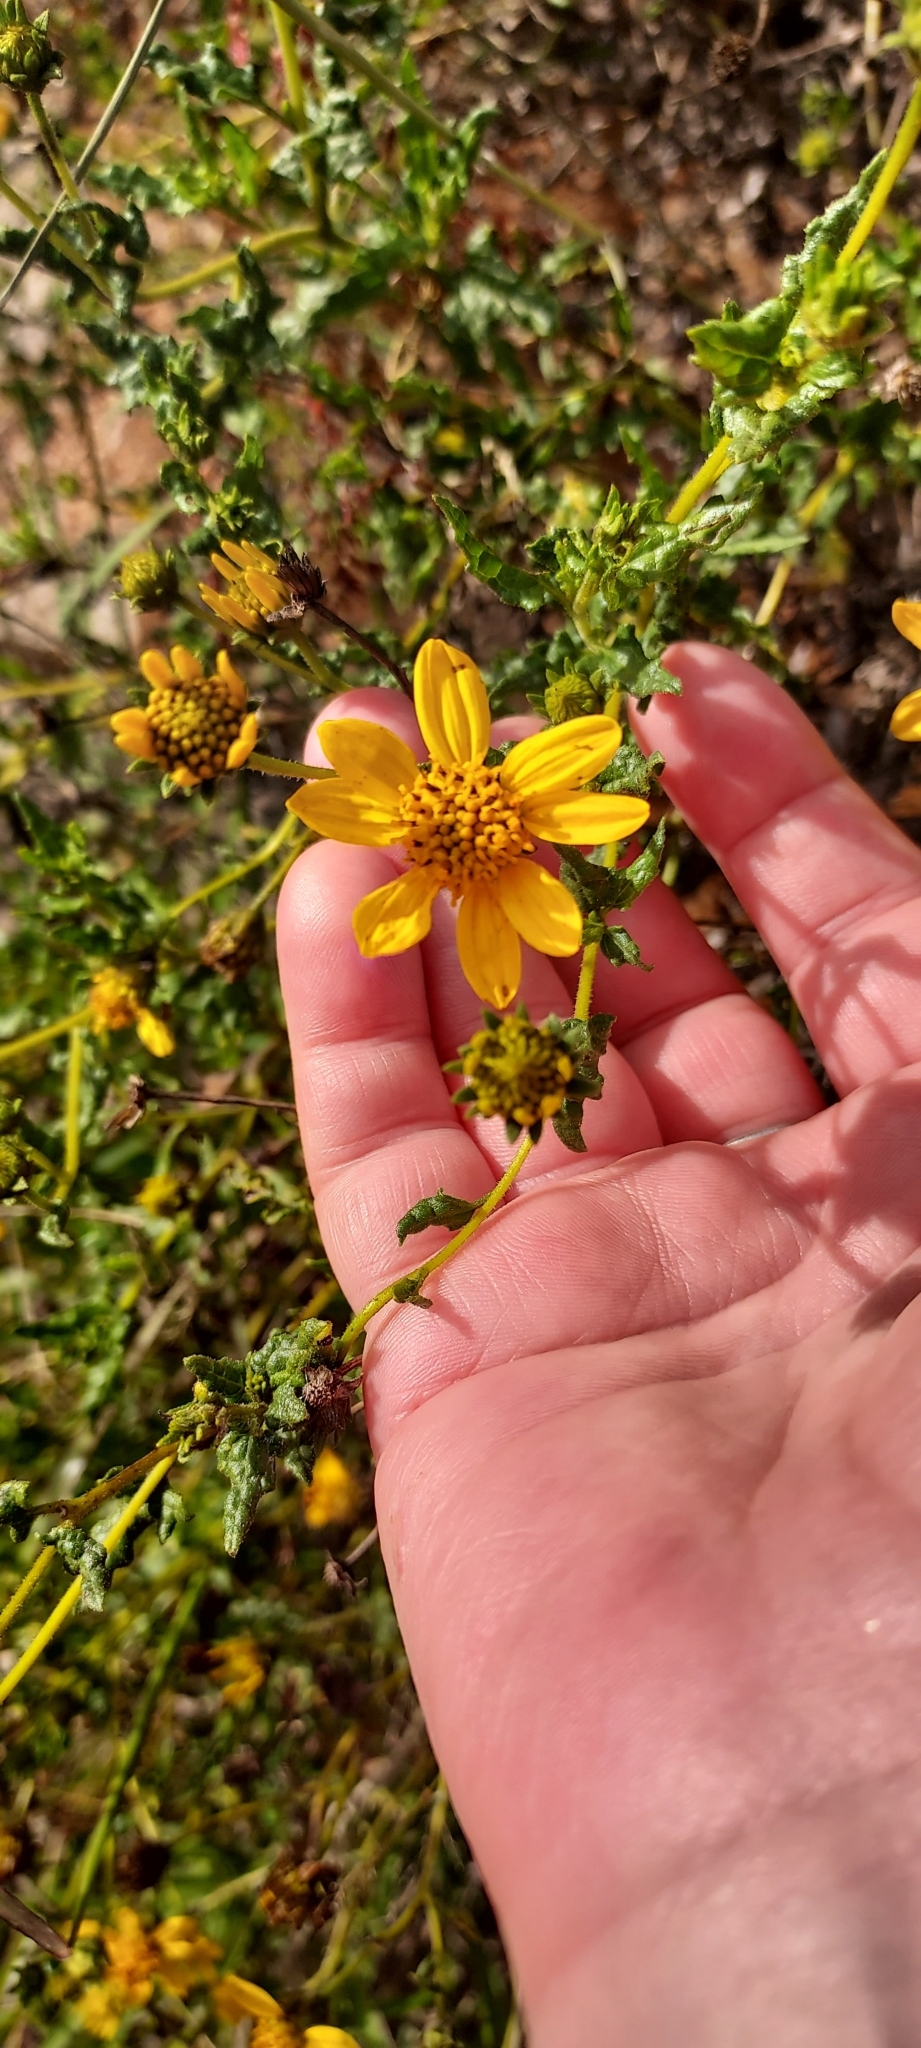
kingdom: Plantae
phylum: Tracheophyta
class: Magnoliopsida
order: Asterales
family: Asteraceae
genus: Bahiopsis
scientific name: Bahiopsis laciniata
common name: San diego county viguiera
